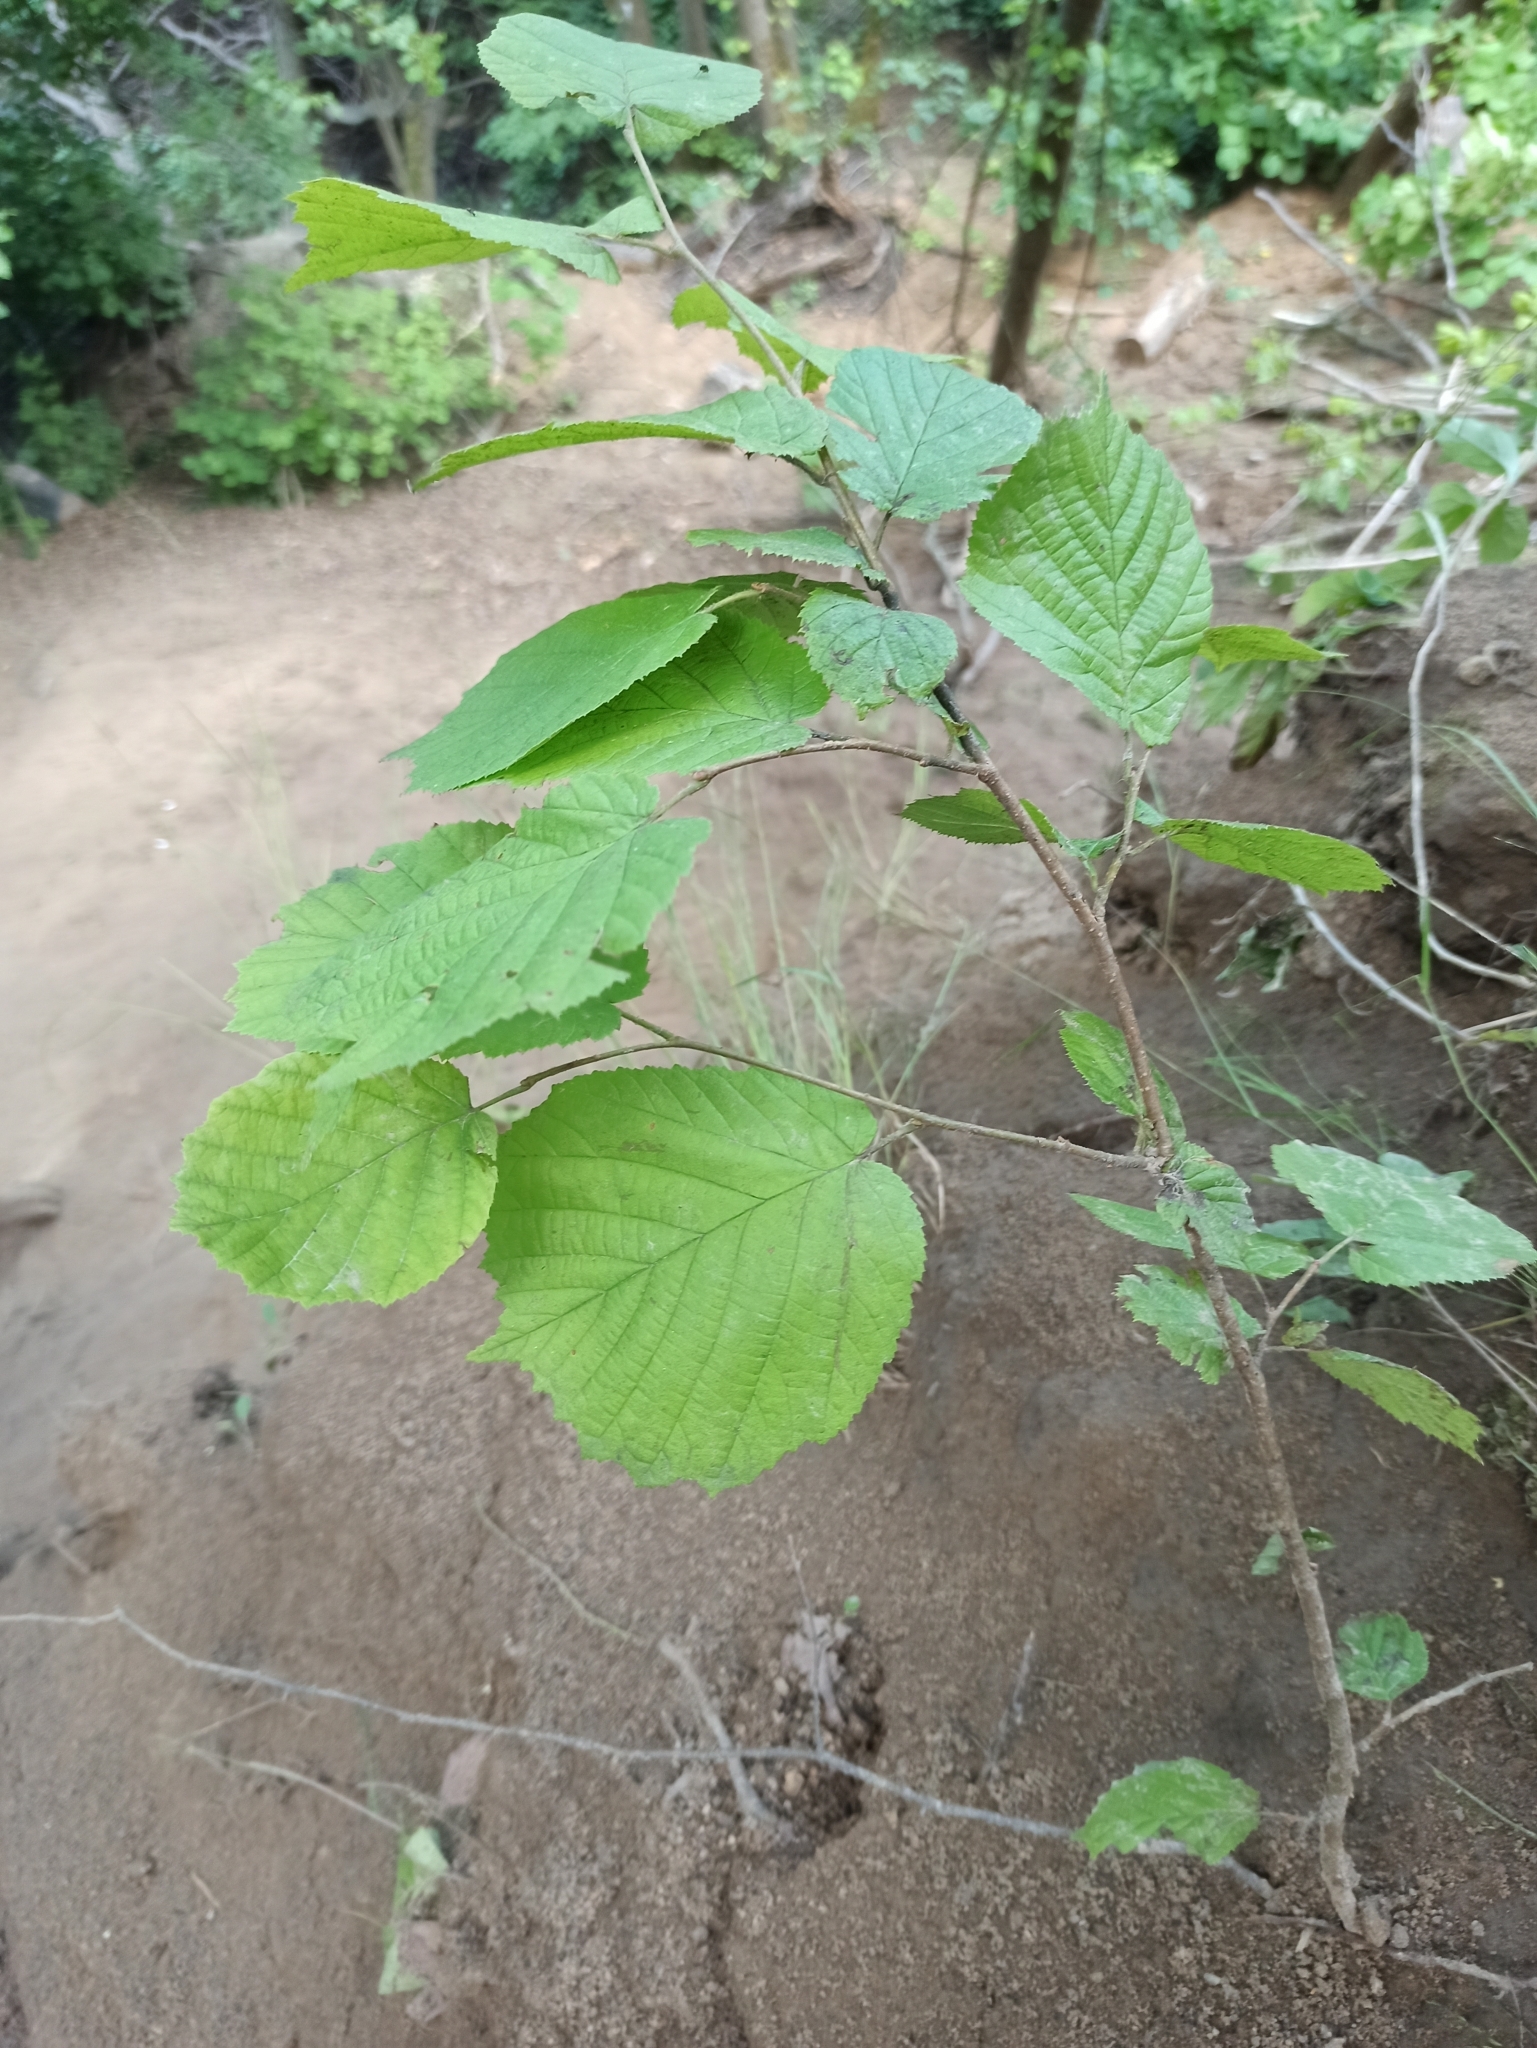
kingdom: Plantae
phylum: Tracheophyta
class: Magnoliopsida
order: Fagales
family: Betulaceae
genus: Corylus
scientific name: Corylus avellana
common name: European hazel
